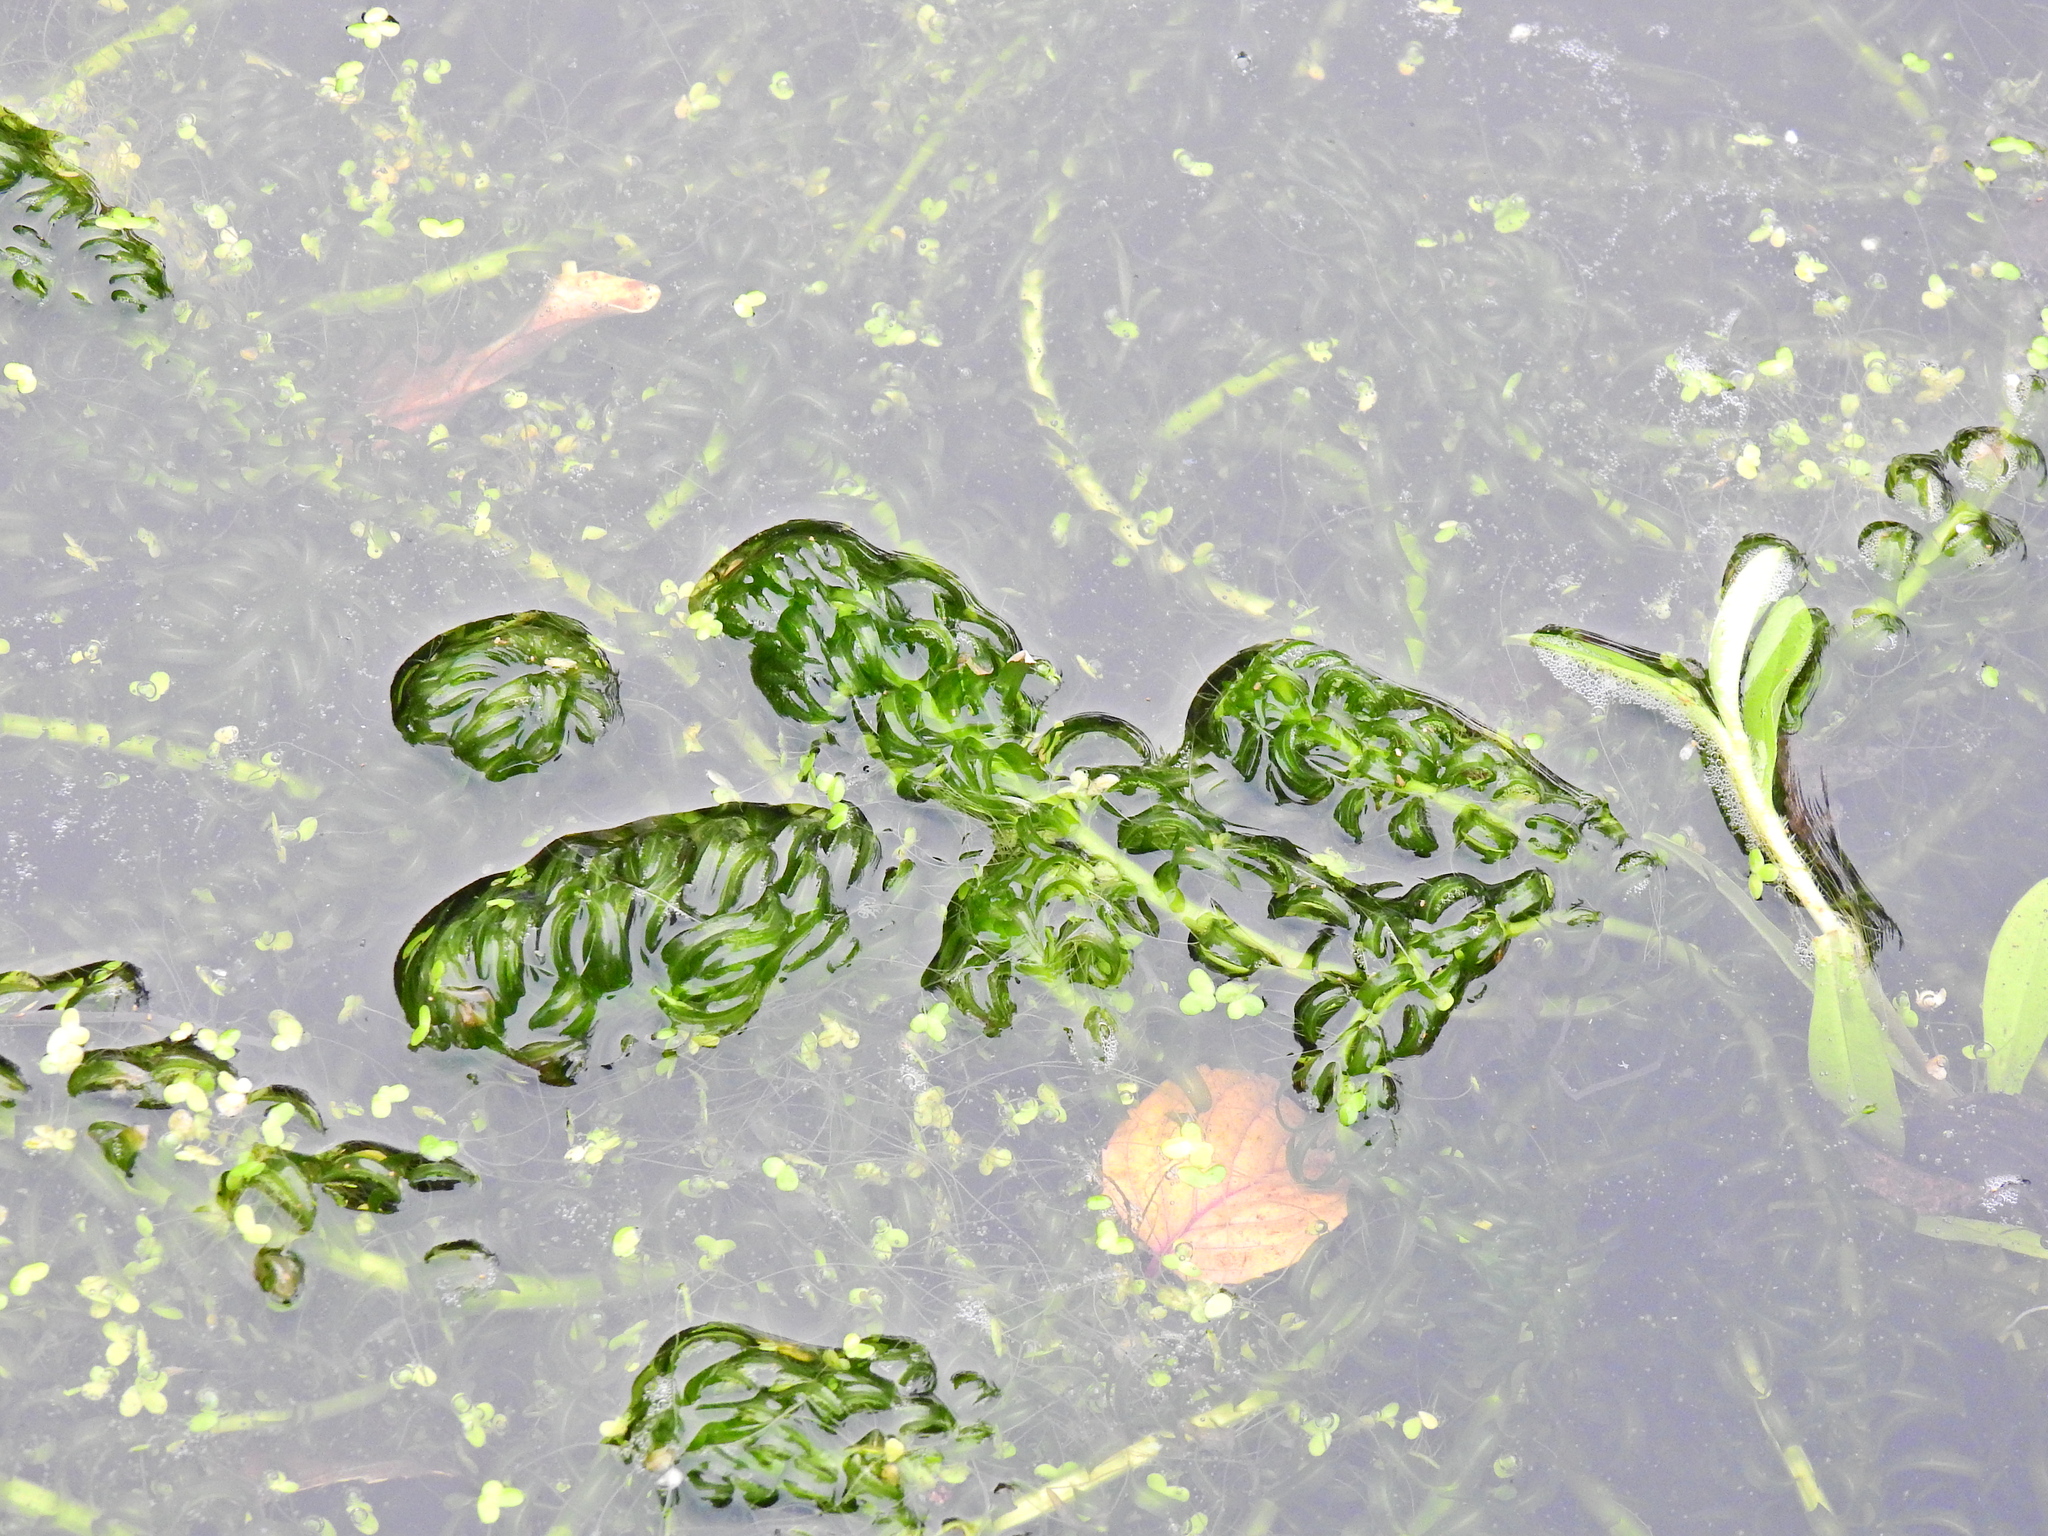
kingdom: Plantae
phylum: Tracheophyta
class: Liliopsida
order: Alismatales
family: Hydrocharitaceae
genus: Lagarosiphon
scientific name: Lagarosiphon major
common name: Curly waterweed
